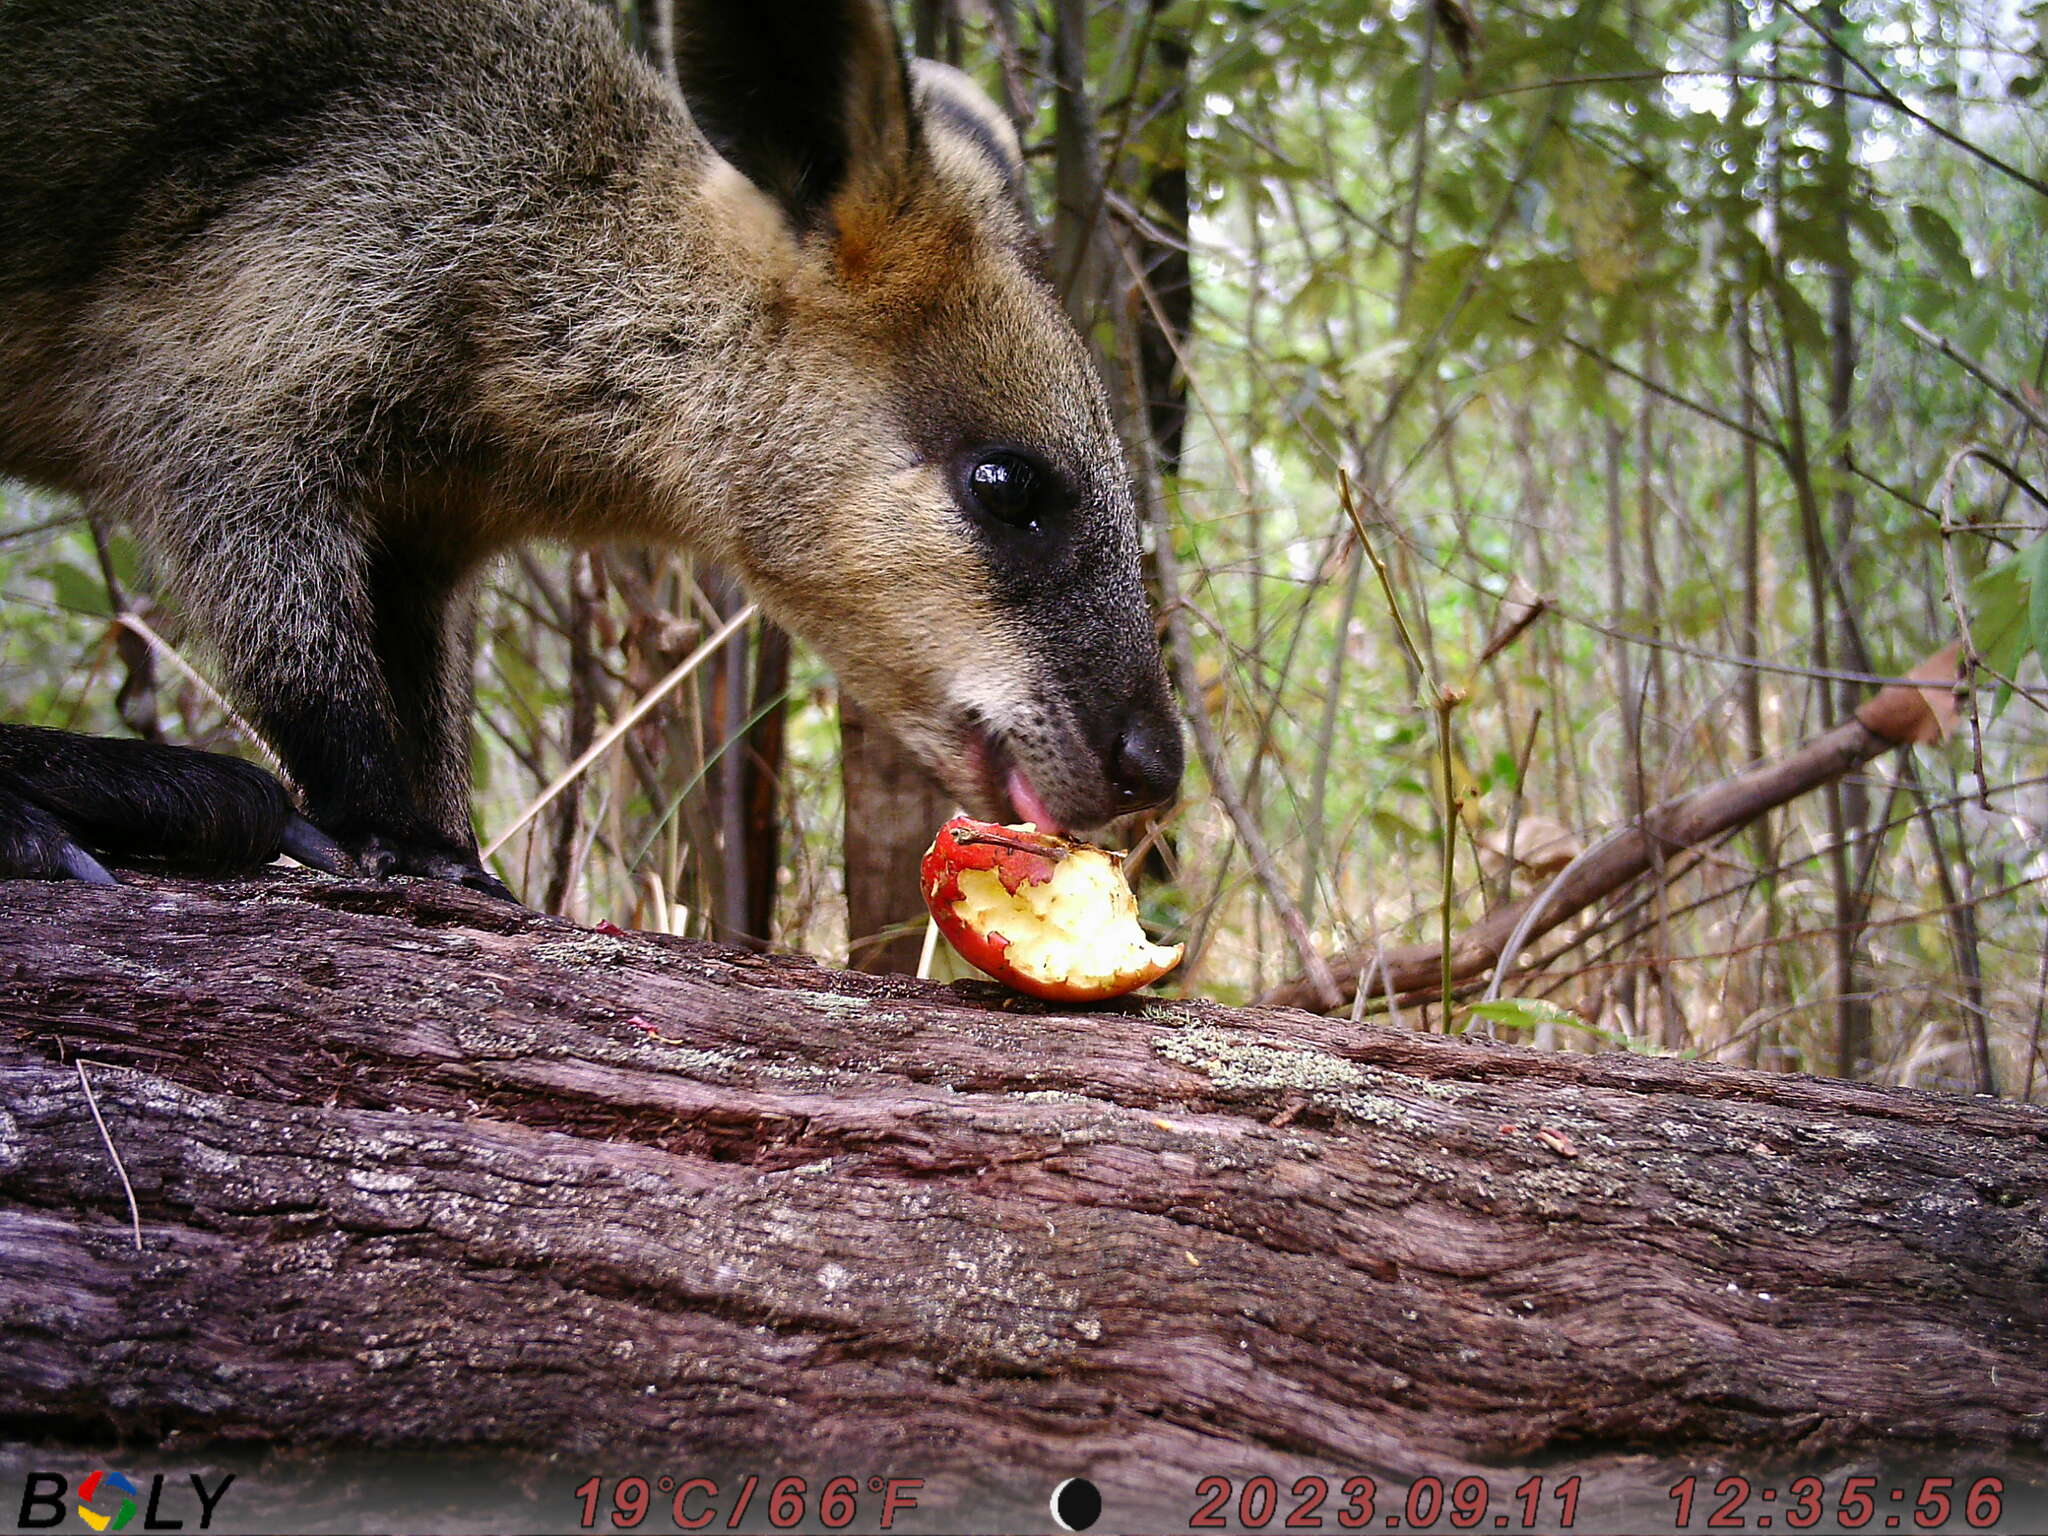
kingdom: Animalia
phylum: Chordata
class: Mammalia
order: Diprotodontia
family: Macropodidae
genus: Wallabia
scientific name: Wallabia bicolor
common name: Swamp wallaby
